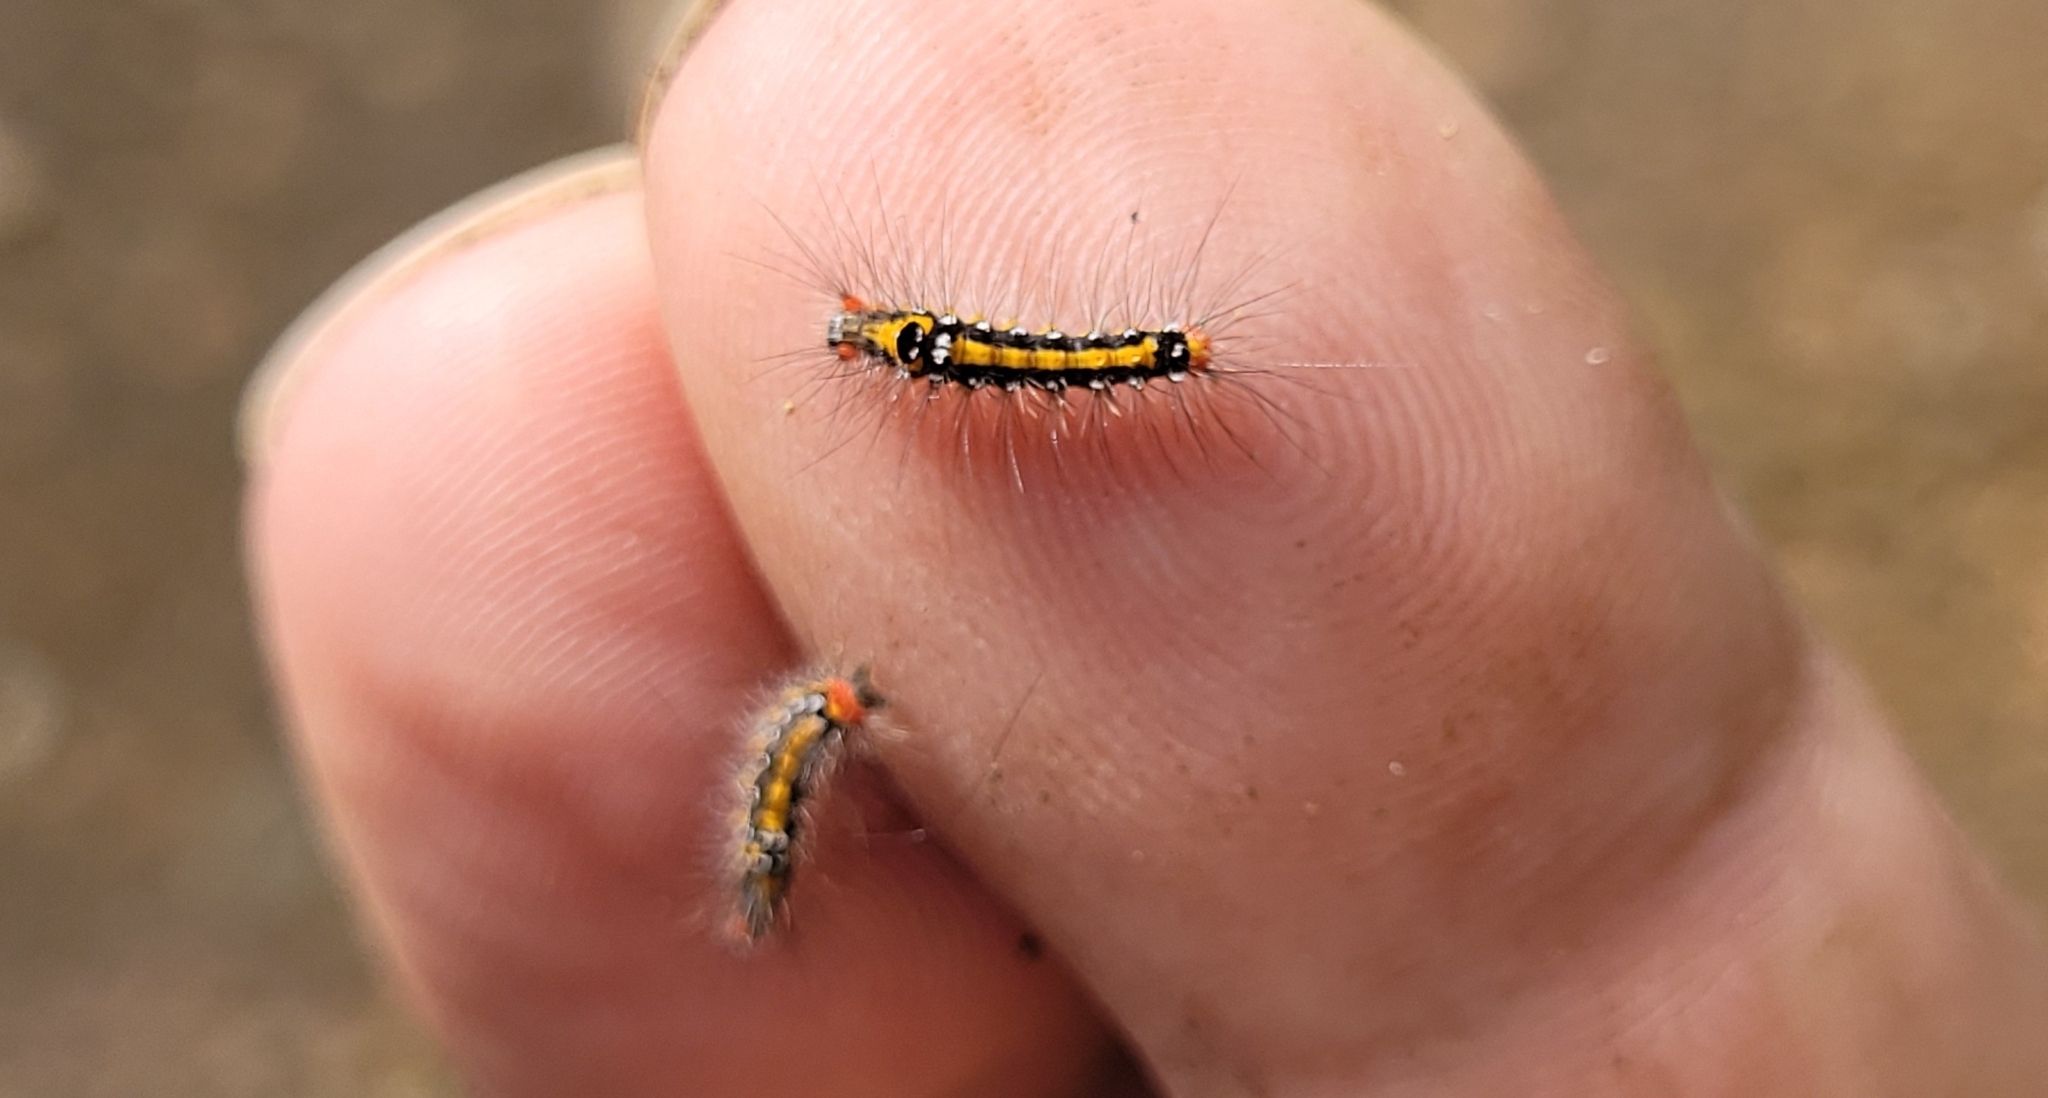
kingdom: Animalia
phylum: Arthropoda
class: Insecta
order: Lepidoptera
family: Erebidae
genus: Sphrageidus
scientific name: Sphrageidus similis
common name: Yellow-tail
